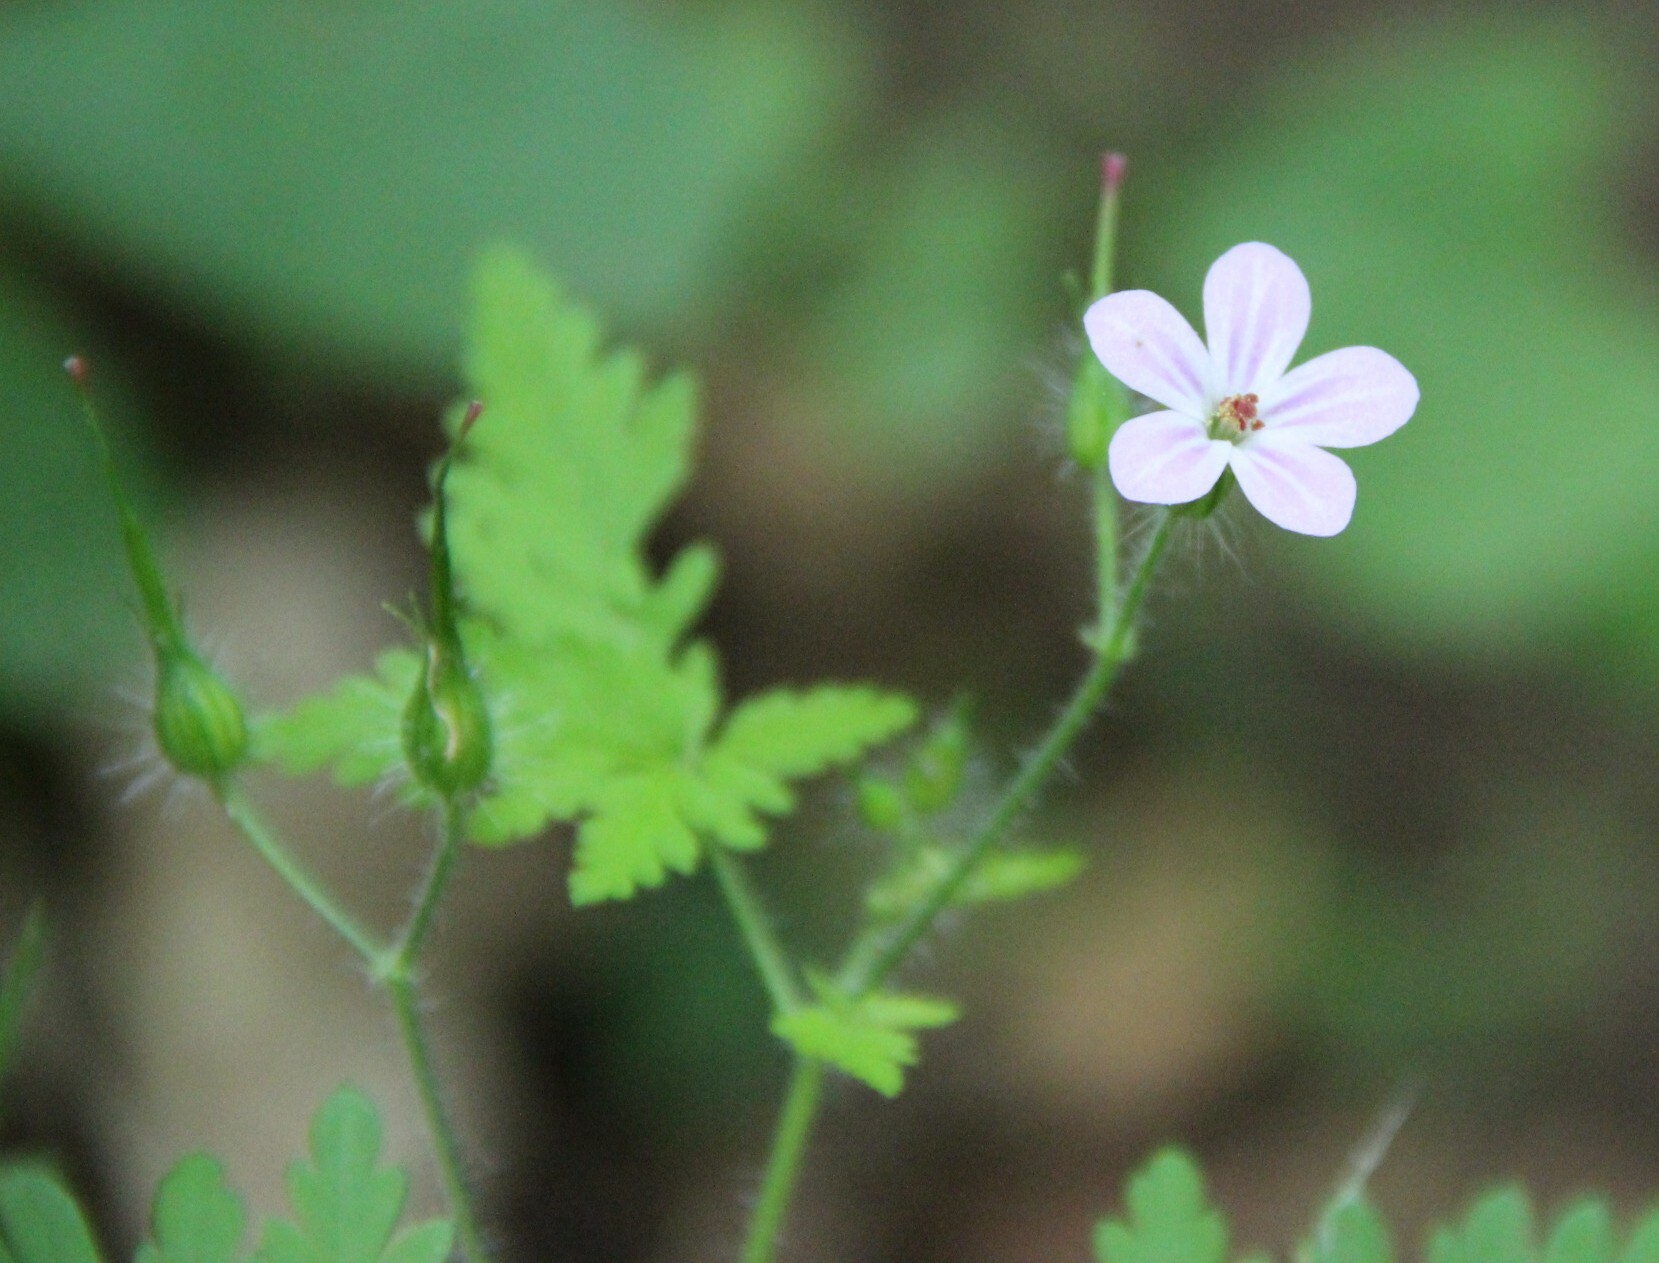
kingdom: Plantae
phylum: Tracheophyta
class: Magnoliopsida
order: Geraniales
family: Geraniaceae
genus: Geranium
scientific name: Geranium robertianum
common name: Herb-robert
